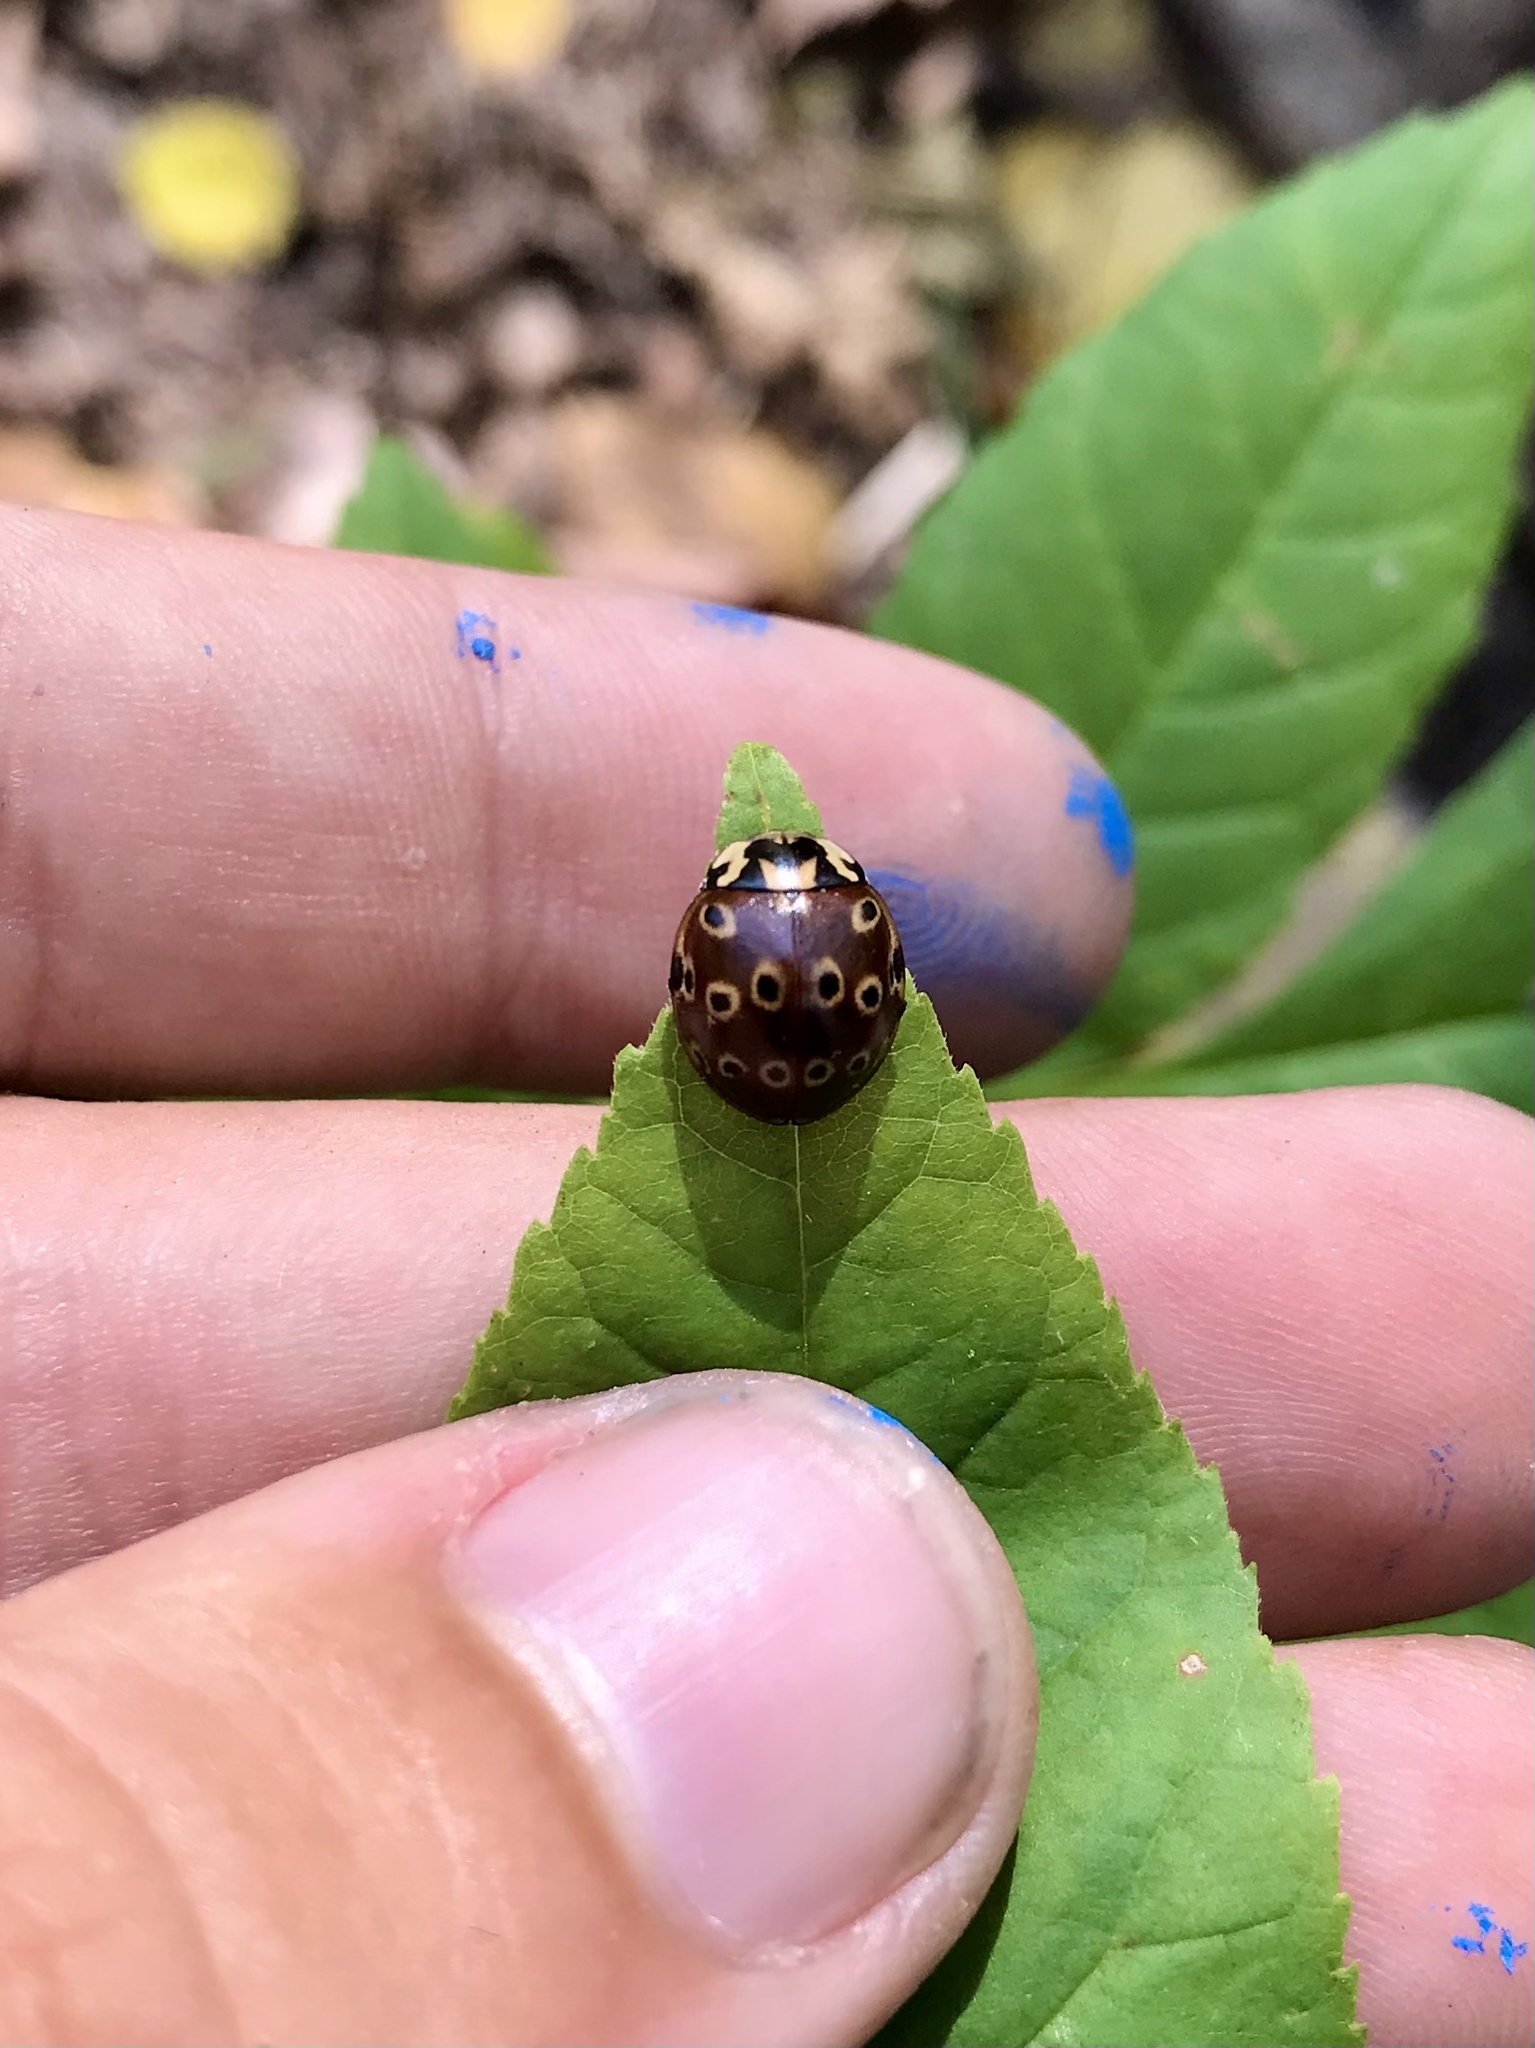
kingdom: Animalia
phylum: Arthropoda
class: Insecta
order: Coleoptera
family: Coccinellidae
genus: Anatis
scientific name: Anatis mali
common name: Eye-spotted lady beetle
